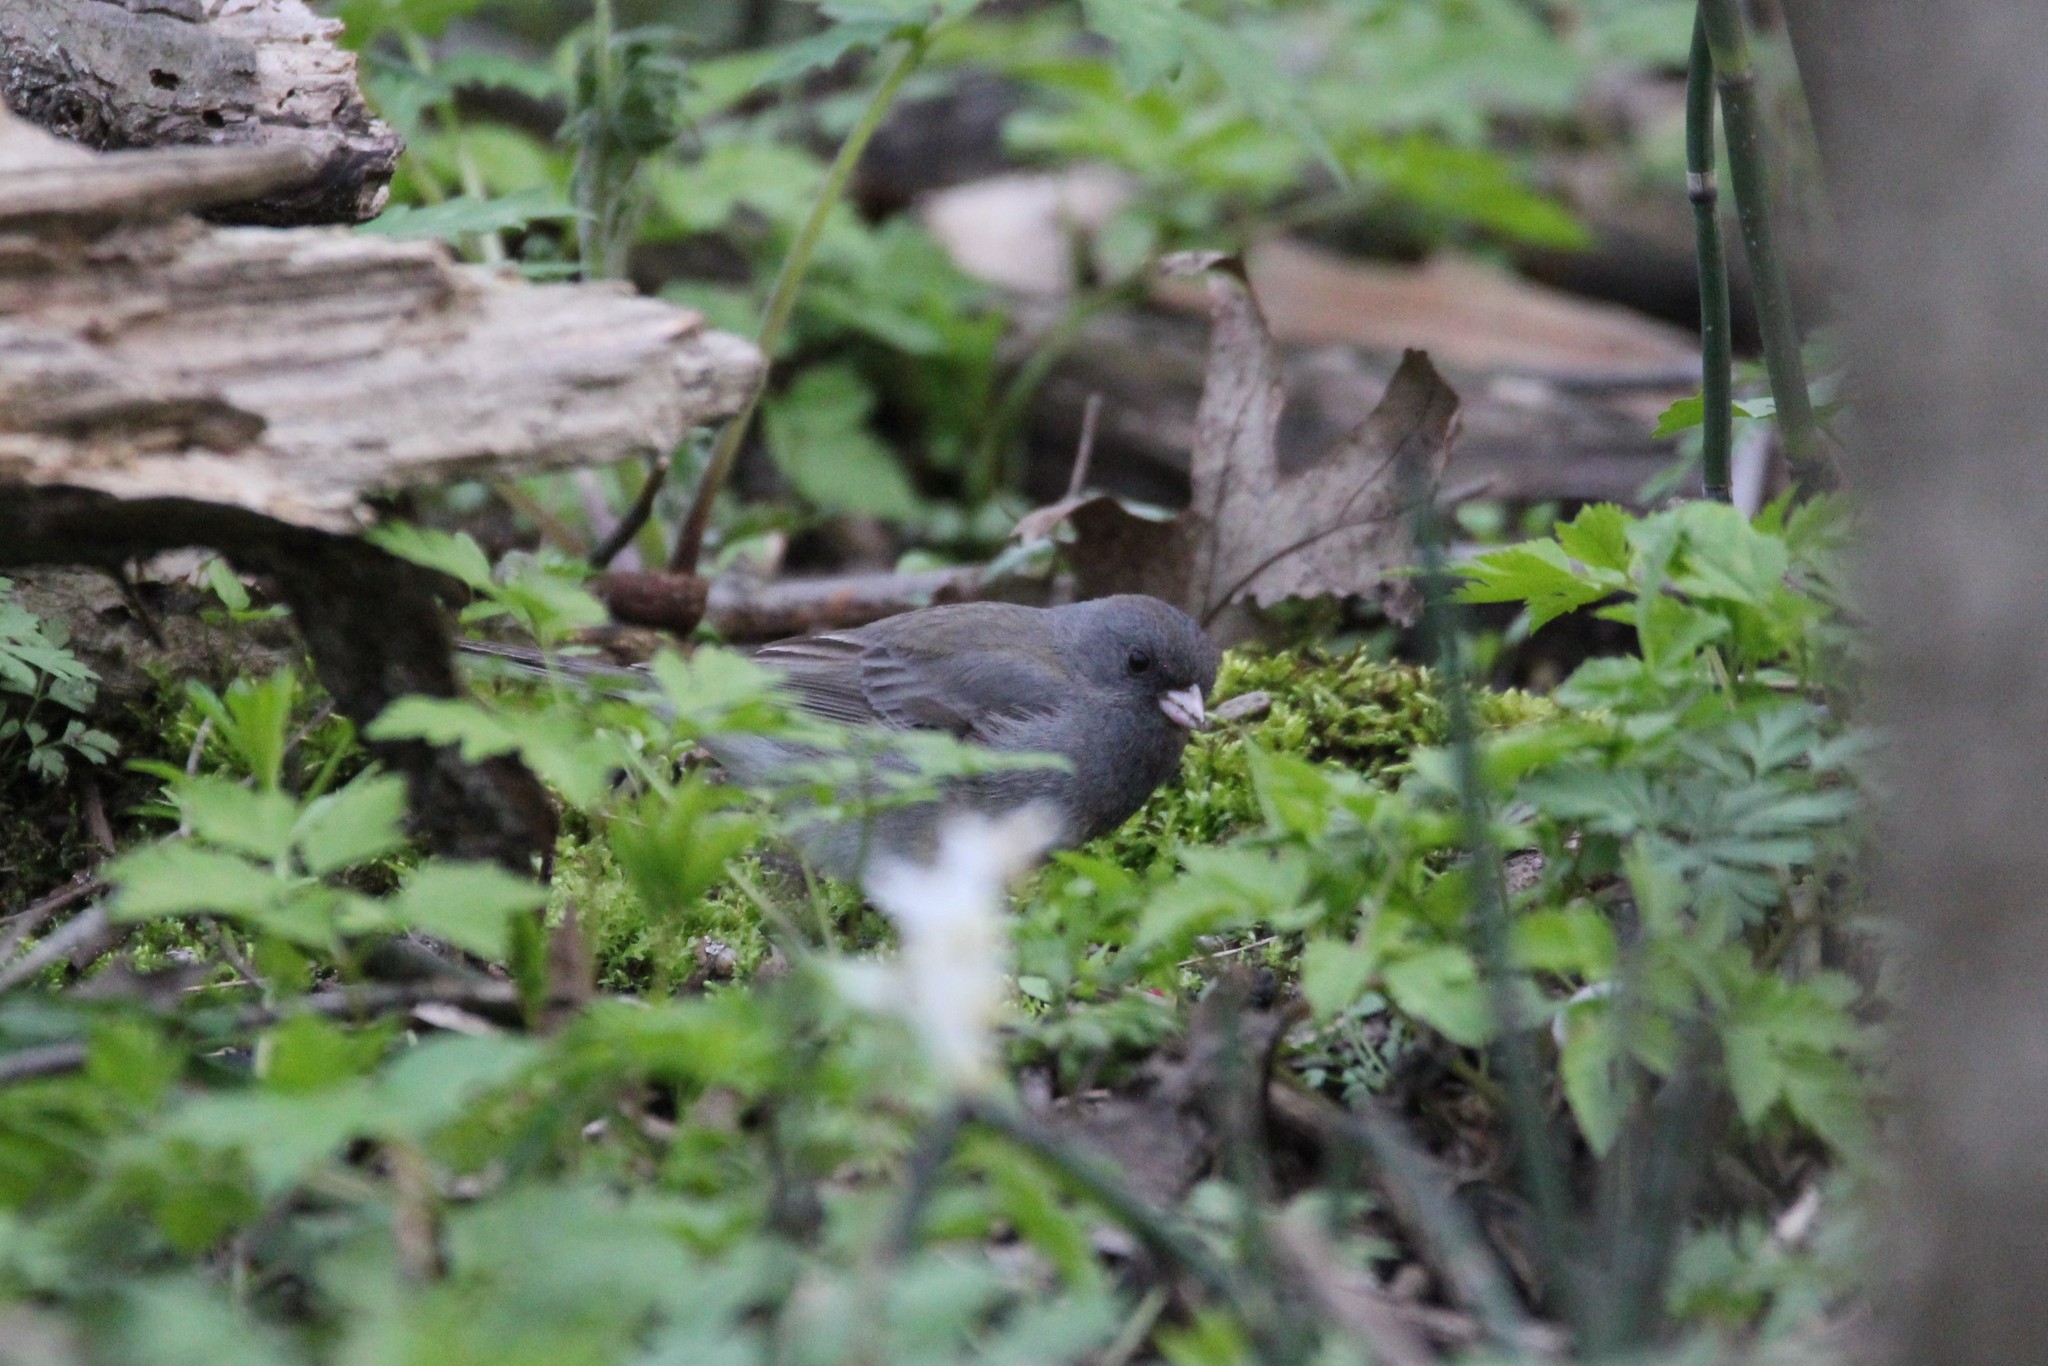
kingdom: Animalia
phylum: Chordata
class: Aves
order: Passeriformes
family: Passerellidae
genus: Junco
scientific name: Junco hyemalis
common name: Dark-eyed junco
